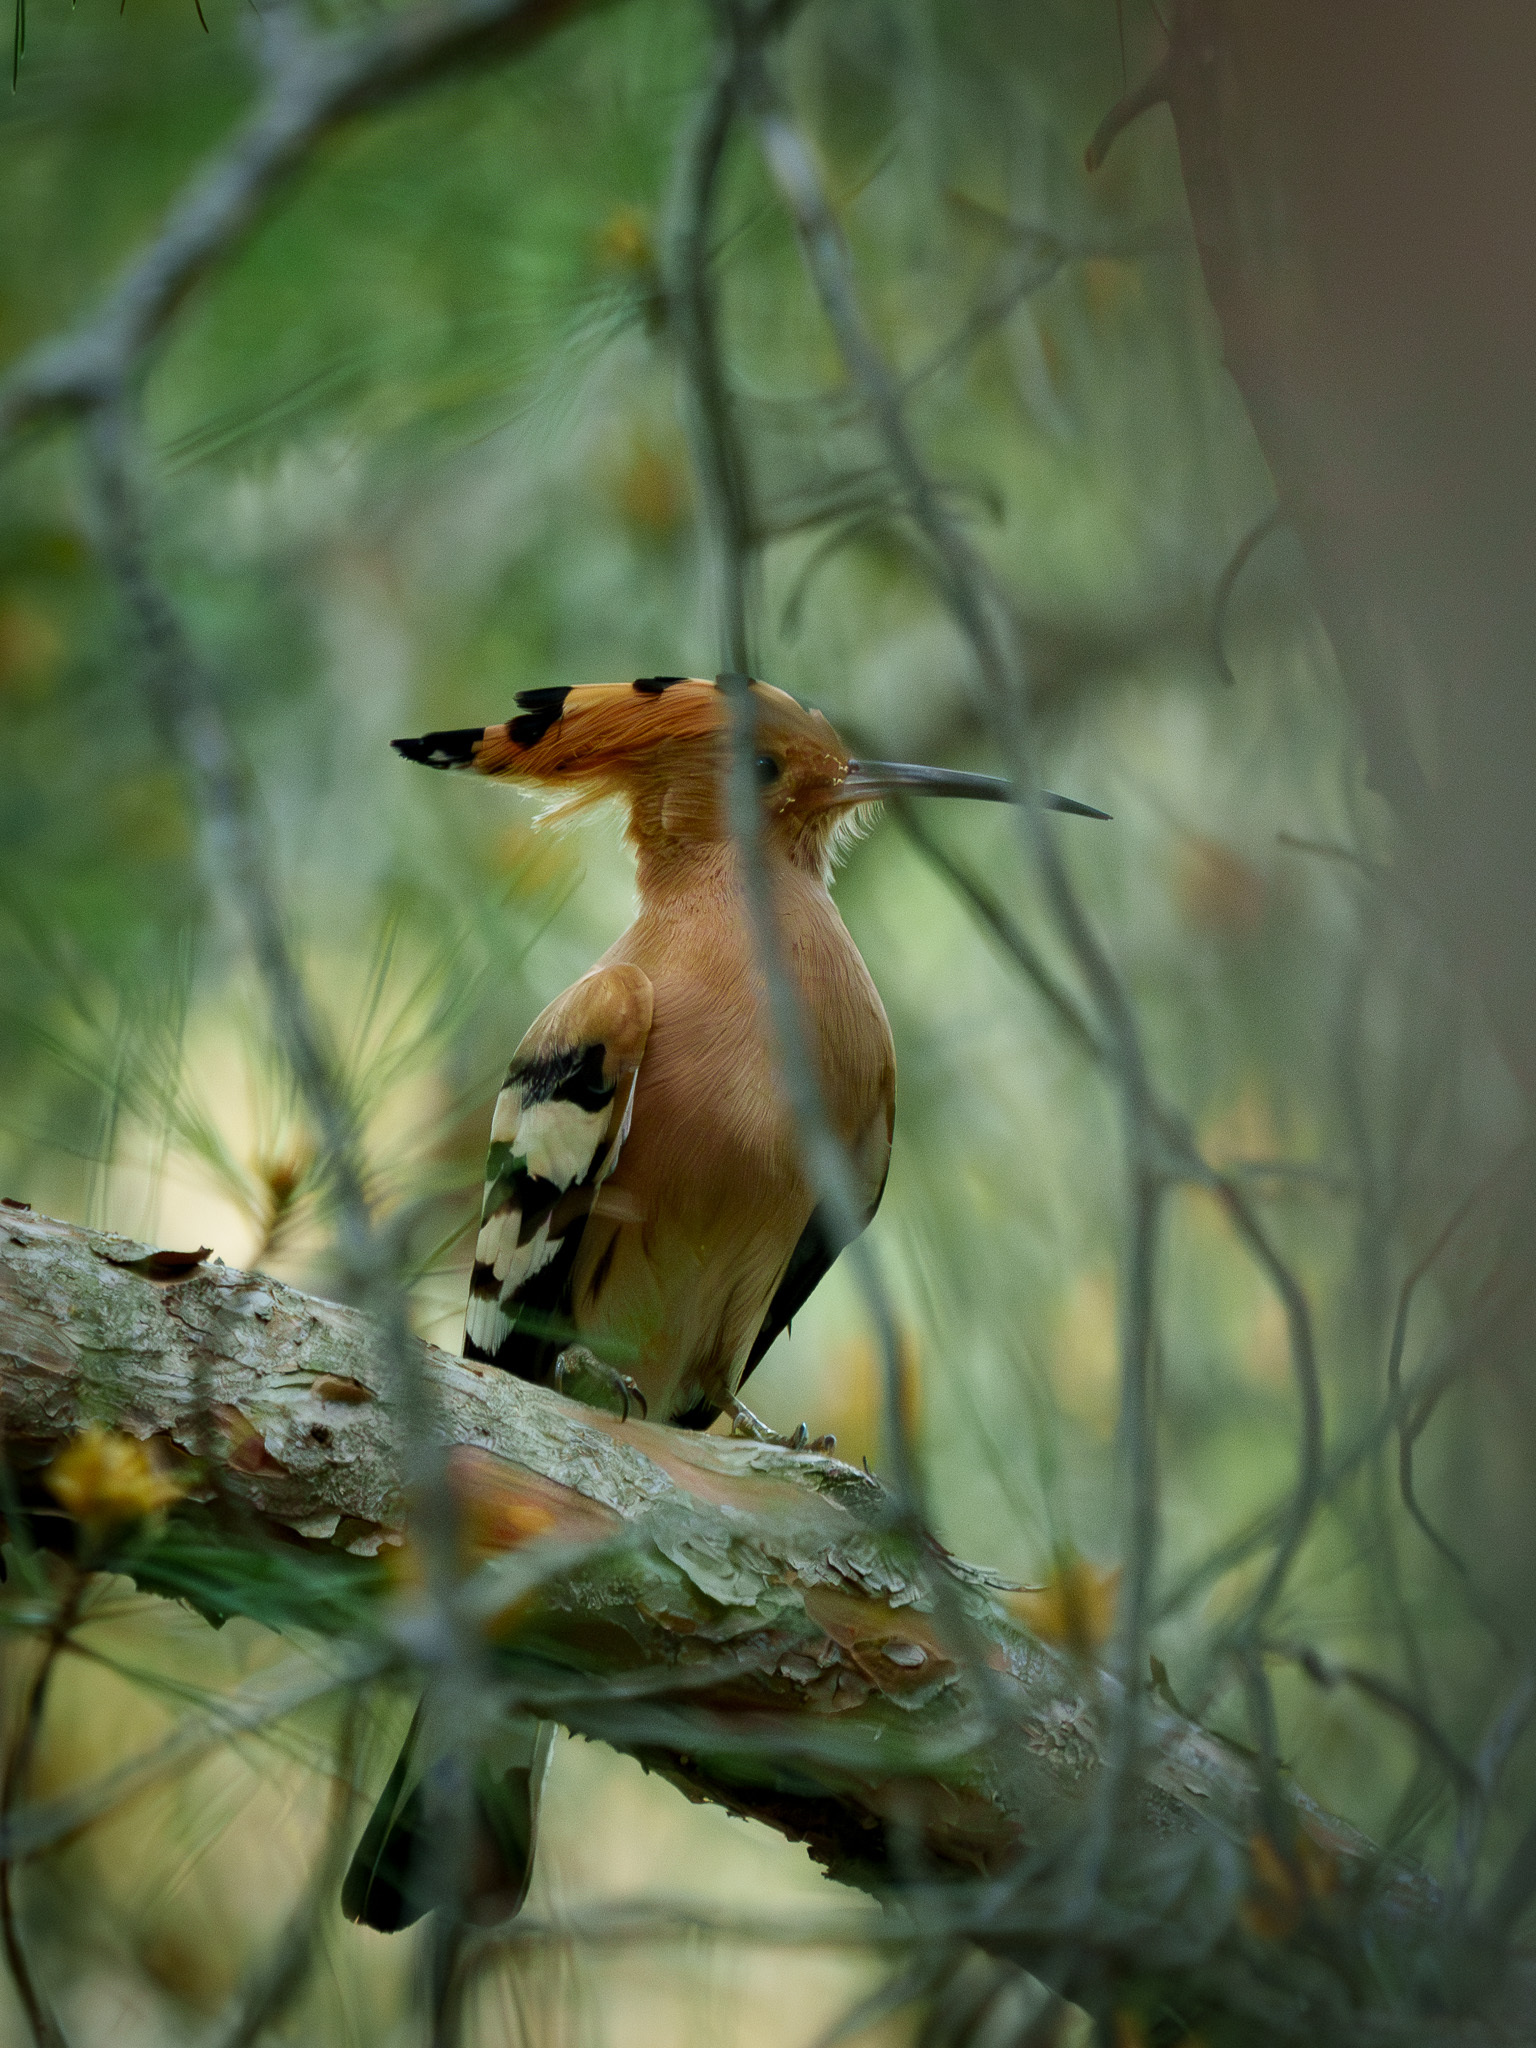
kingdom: Animalia
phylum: Chordata
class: Aves
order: Bucerotiformes
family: Upupidae
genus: Upupa
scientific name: Upupa epops
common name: Eurasian hoopoe
